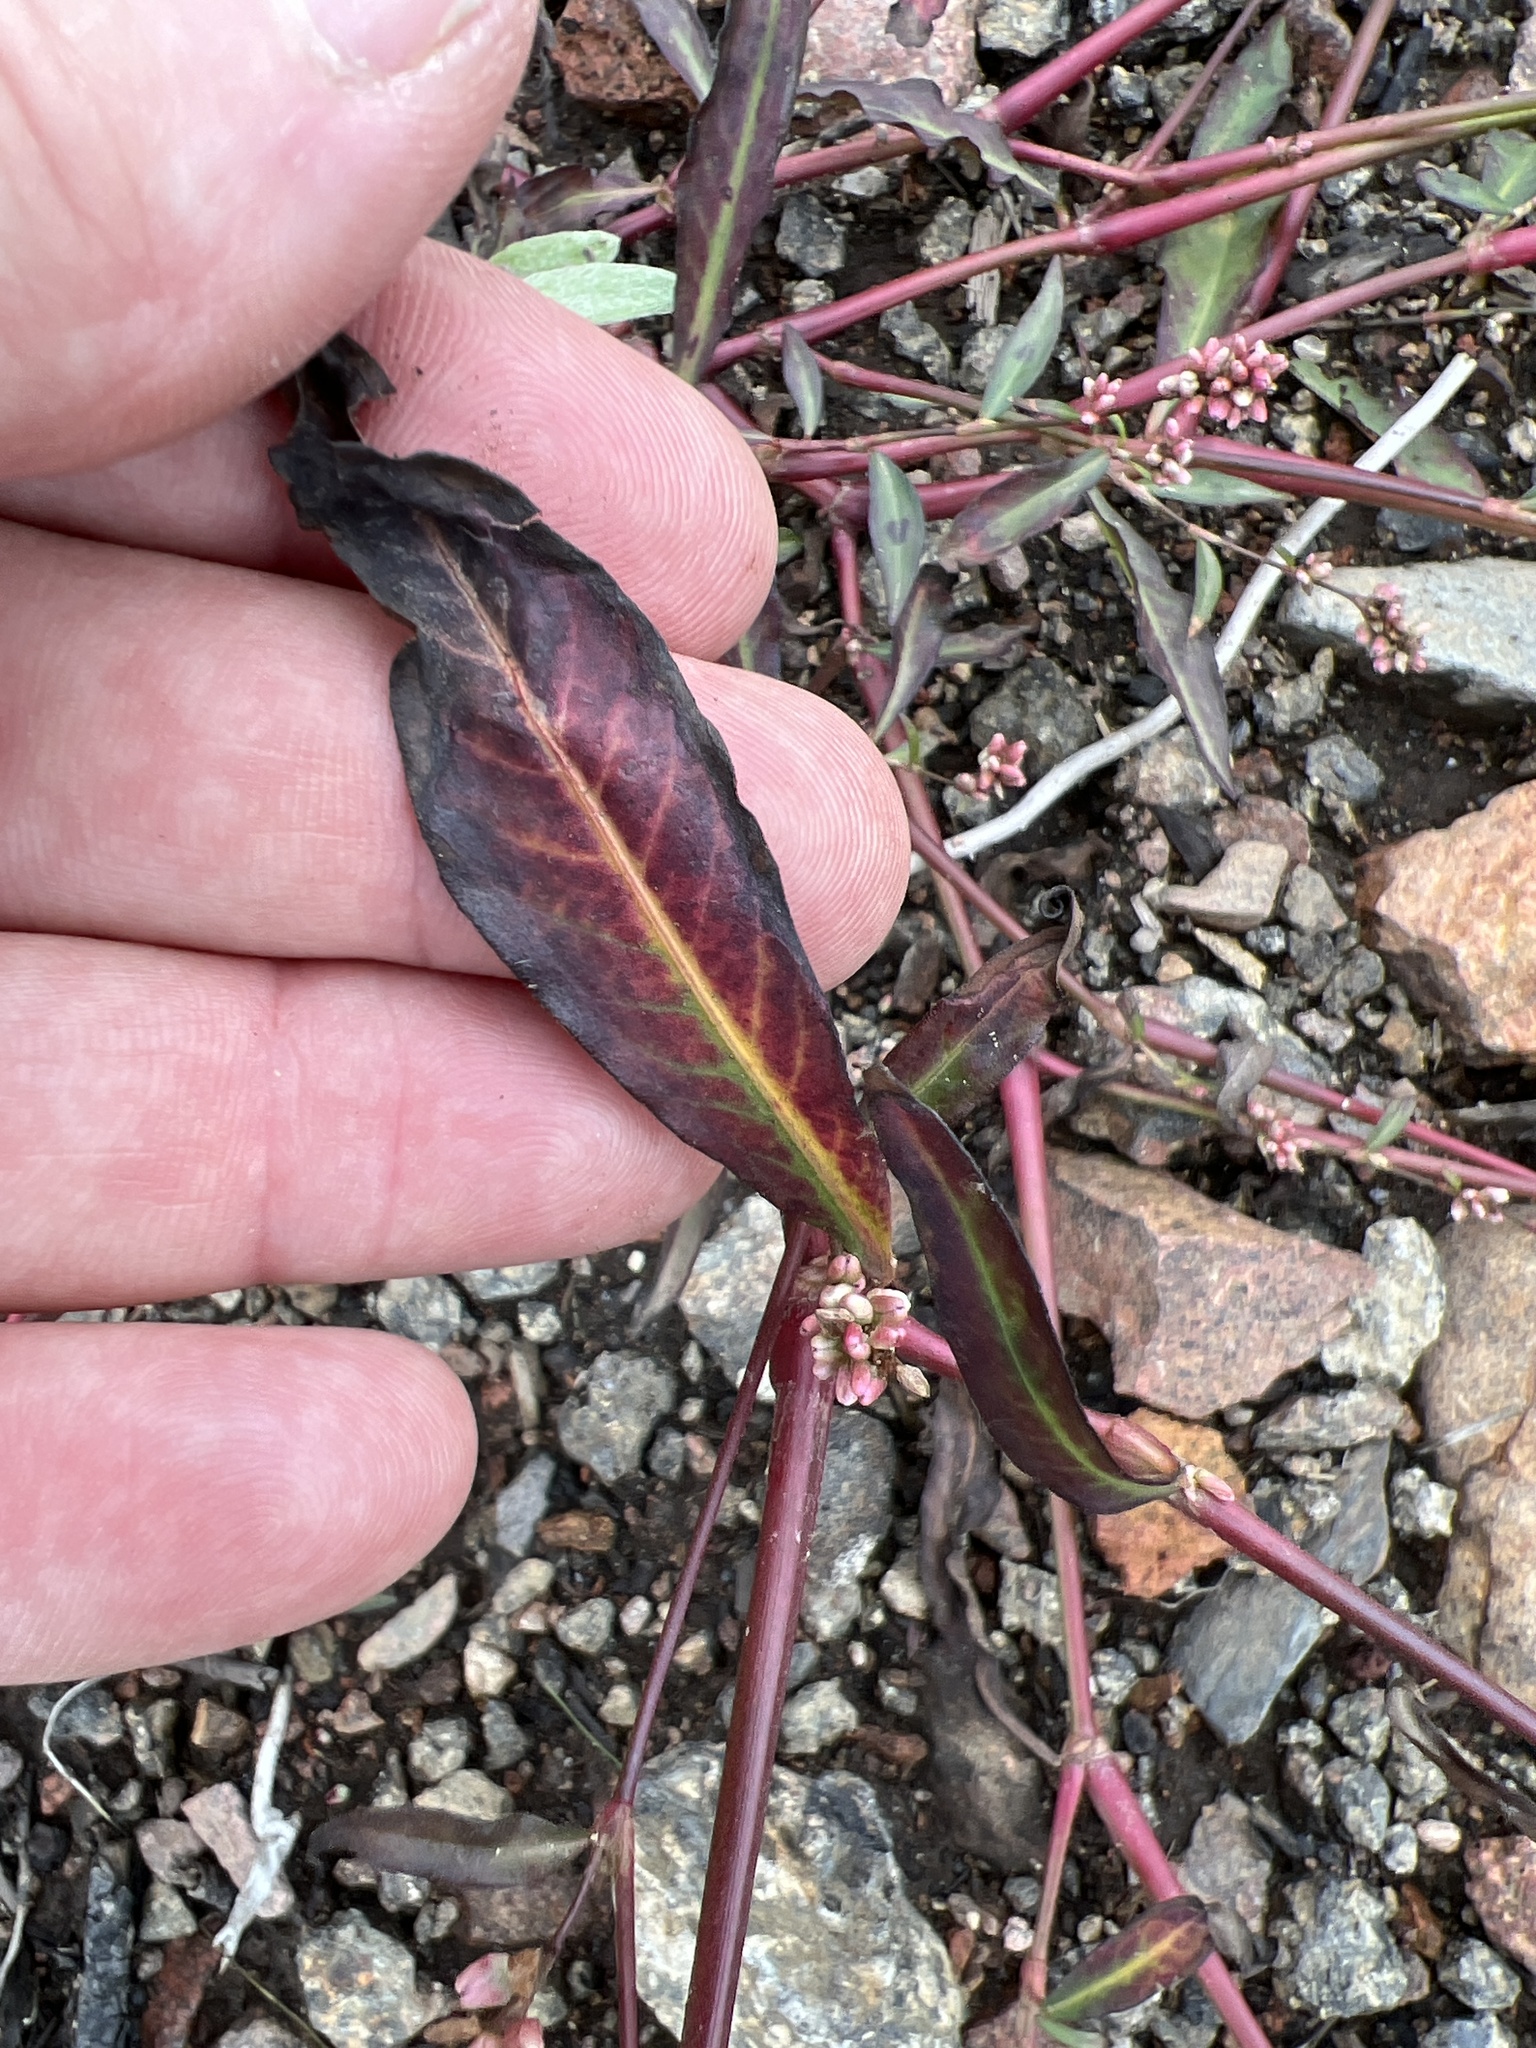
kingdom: Plantae
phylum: Tracheophyta
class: Magnoliopsida
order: Caryophyllales
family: Polygonaceae
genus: Persicaria
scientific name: Persicaria maculosa
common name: Redshank
